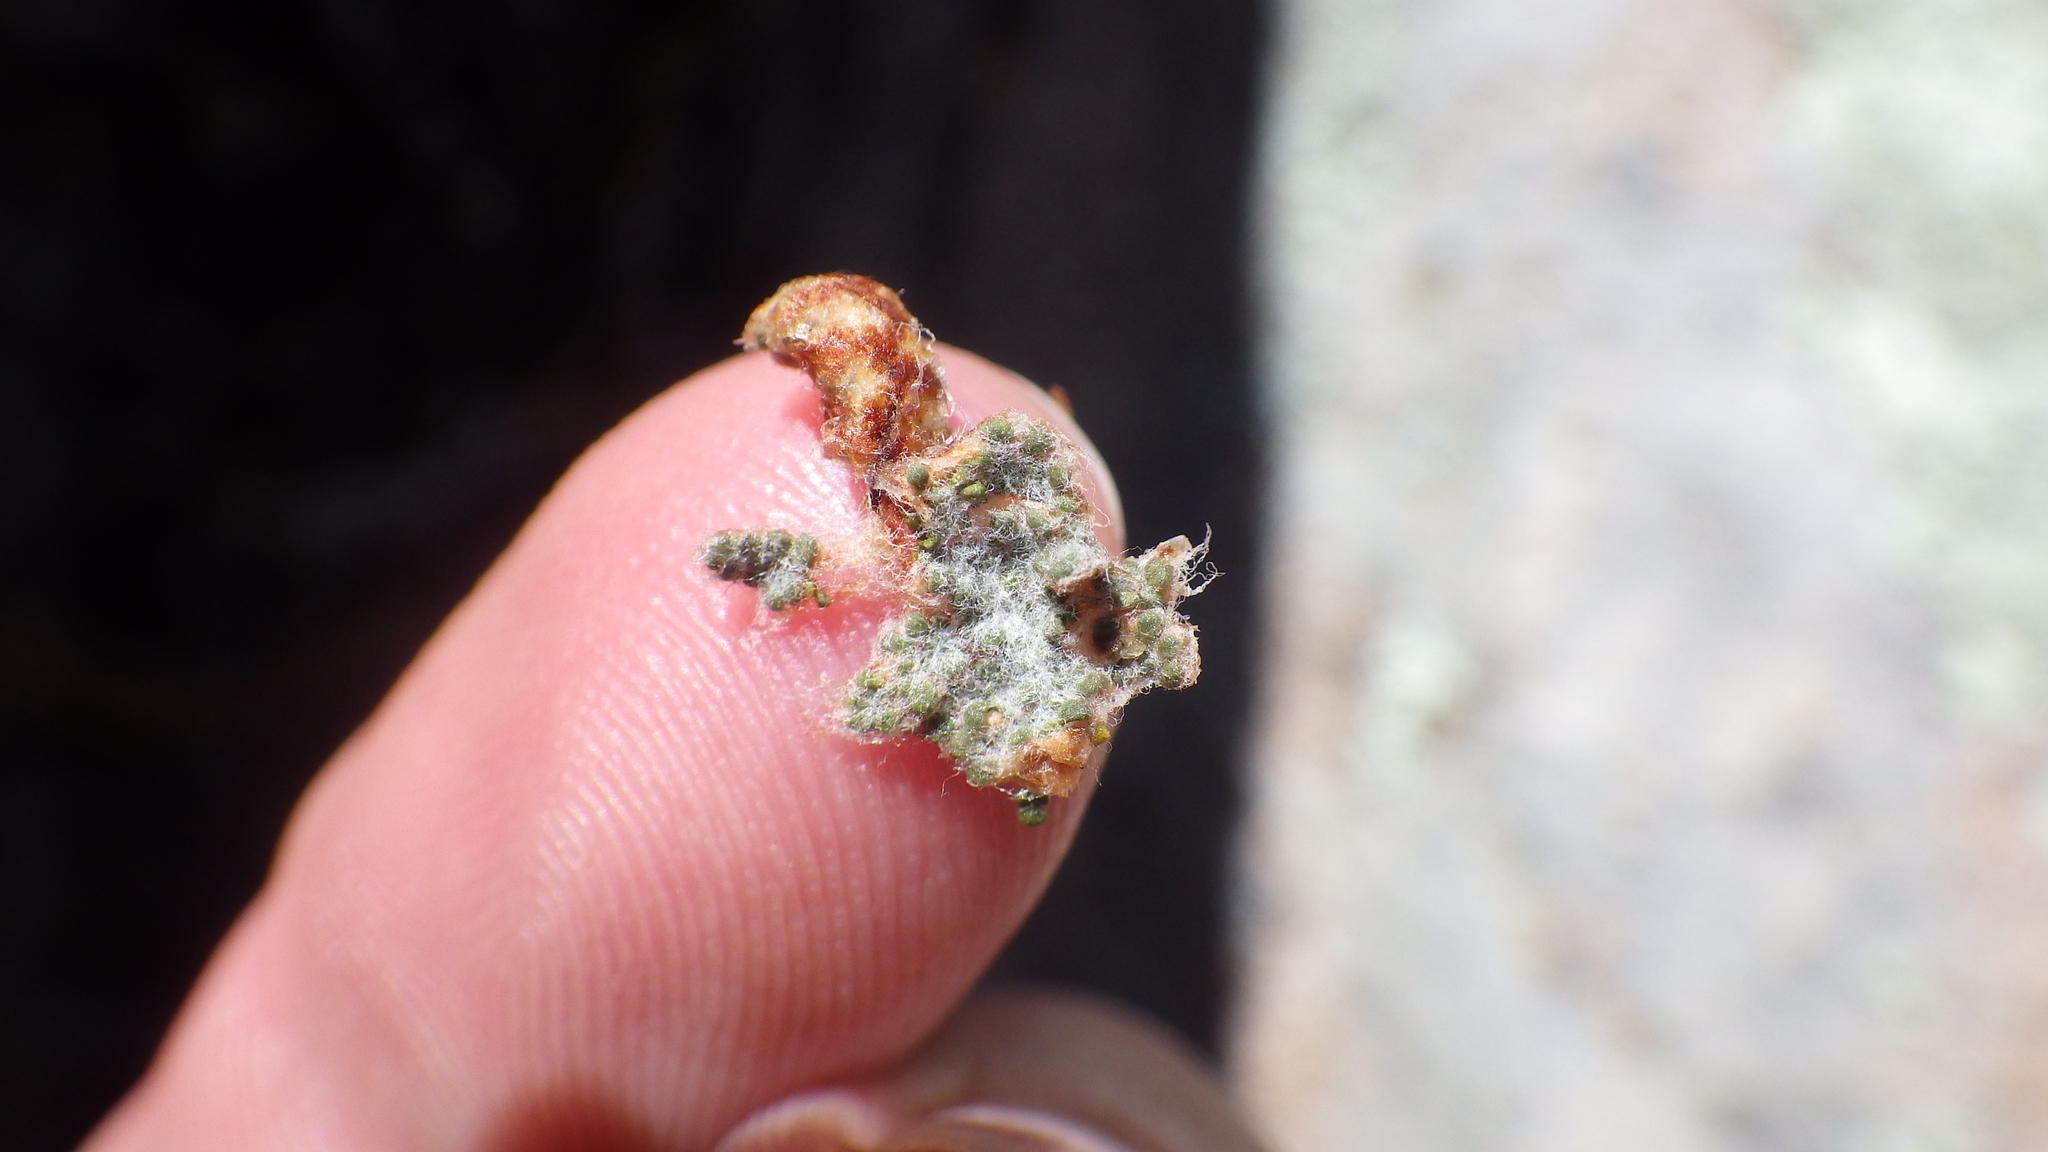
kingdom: Plantae
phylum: Tracheophyta
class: Polypodiopsida
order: Polypodiales
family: Pteridaceae
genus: Myriopteris
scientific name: Myriopteris lindheimeri
